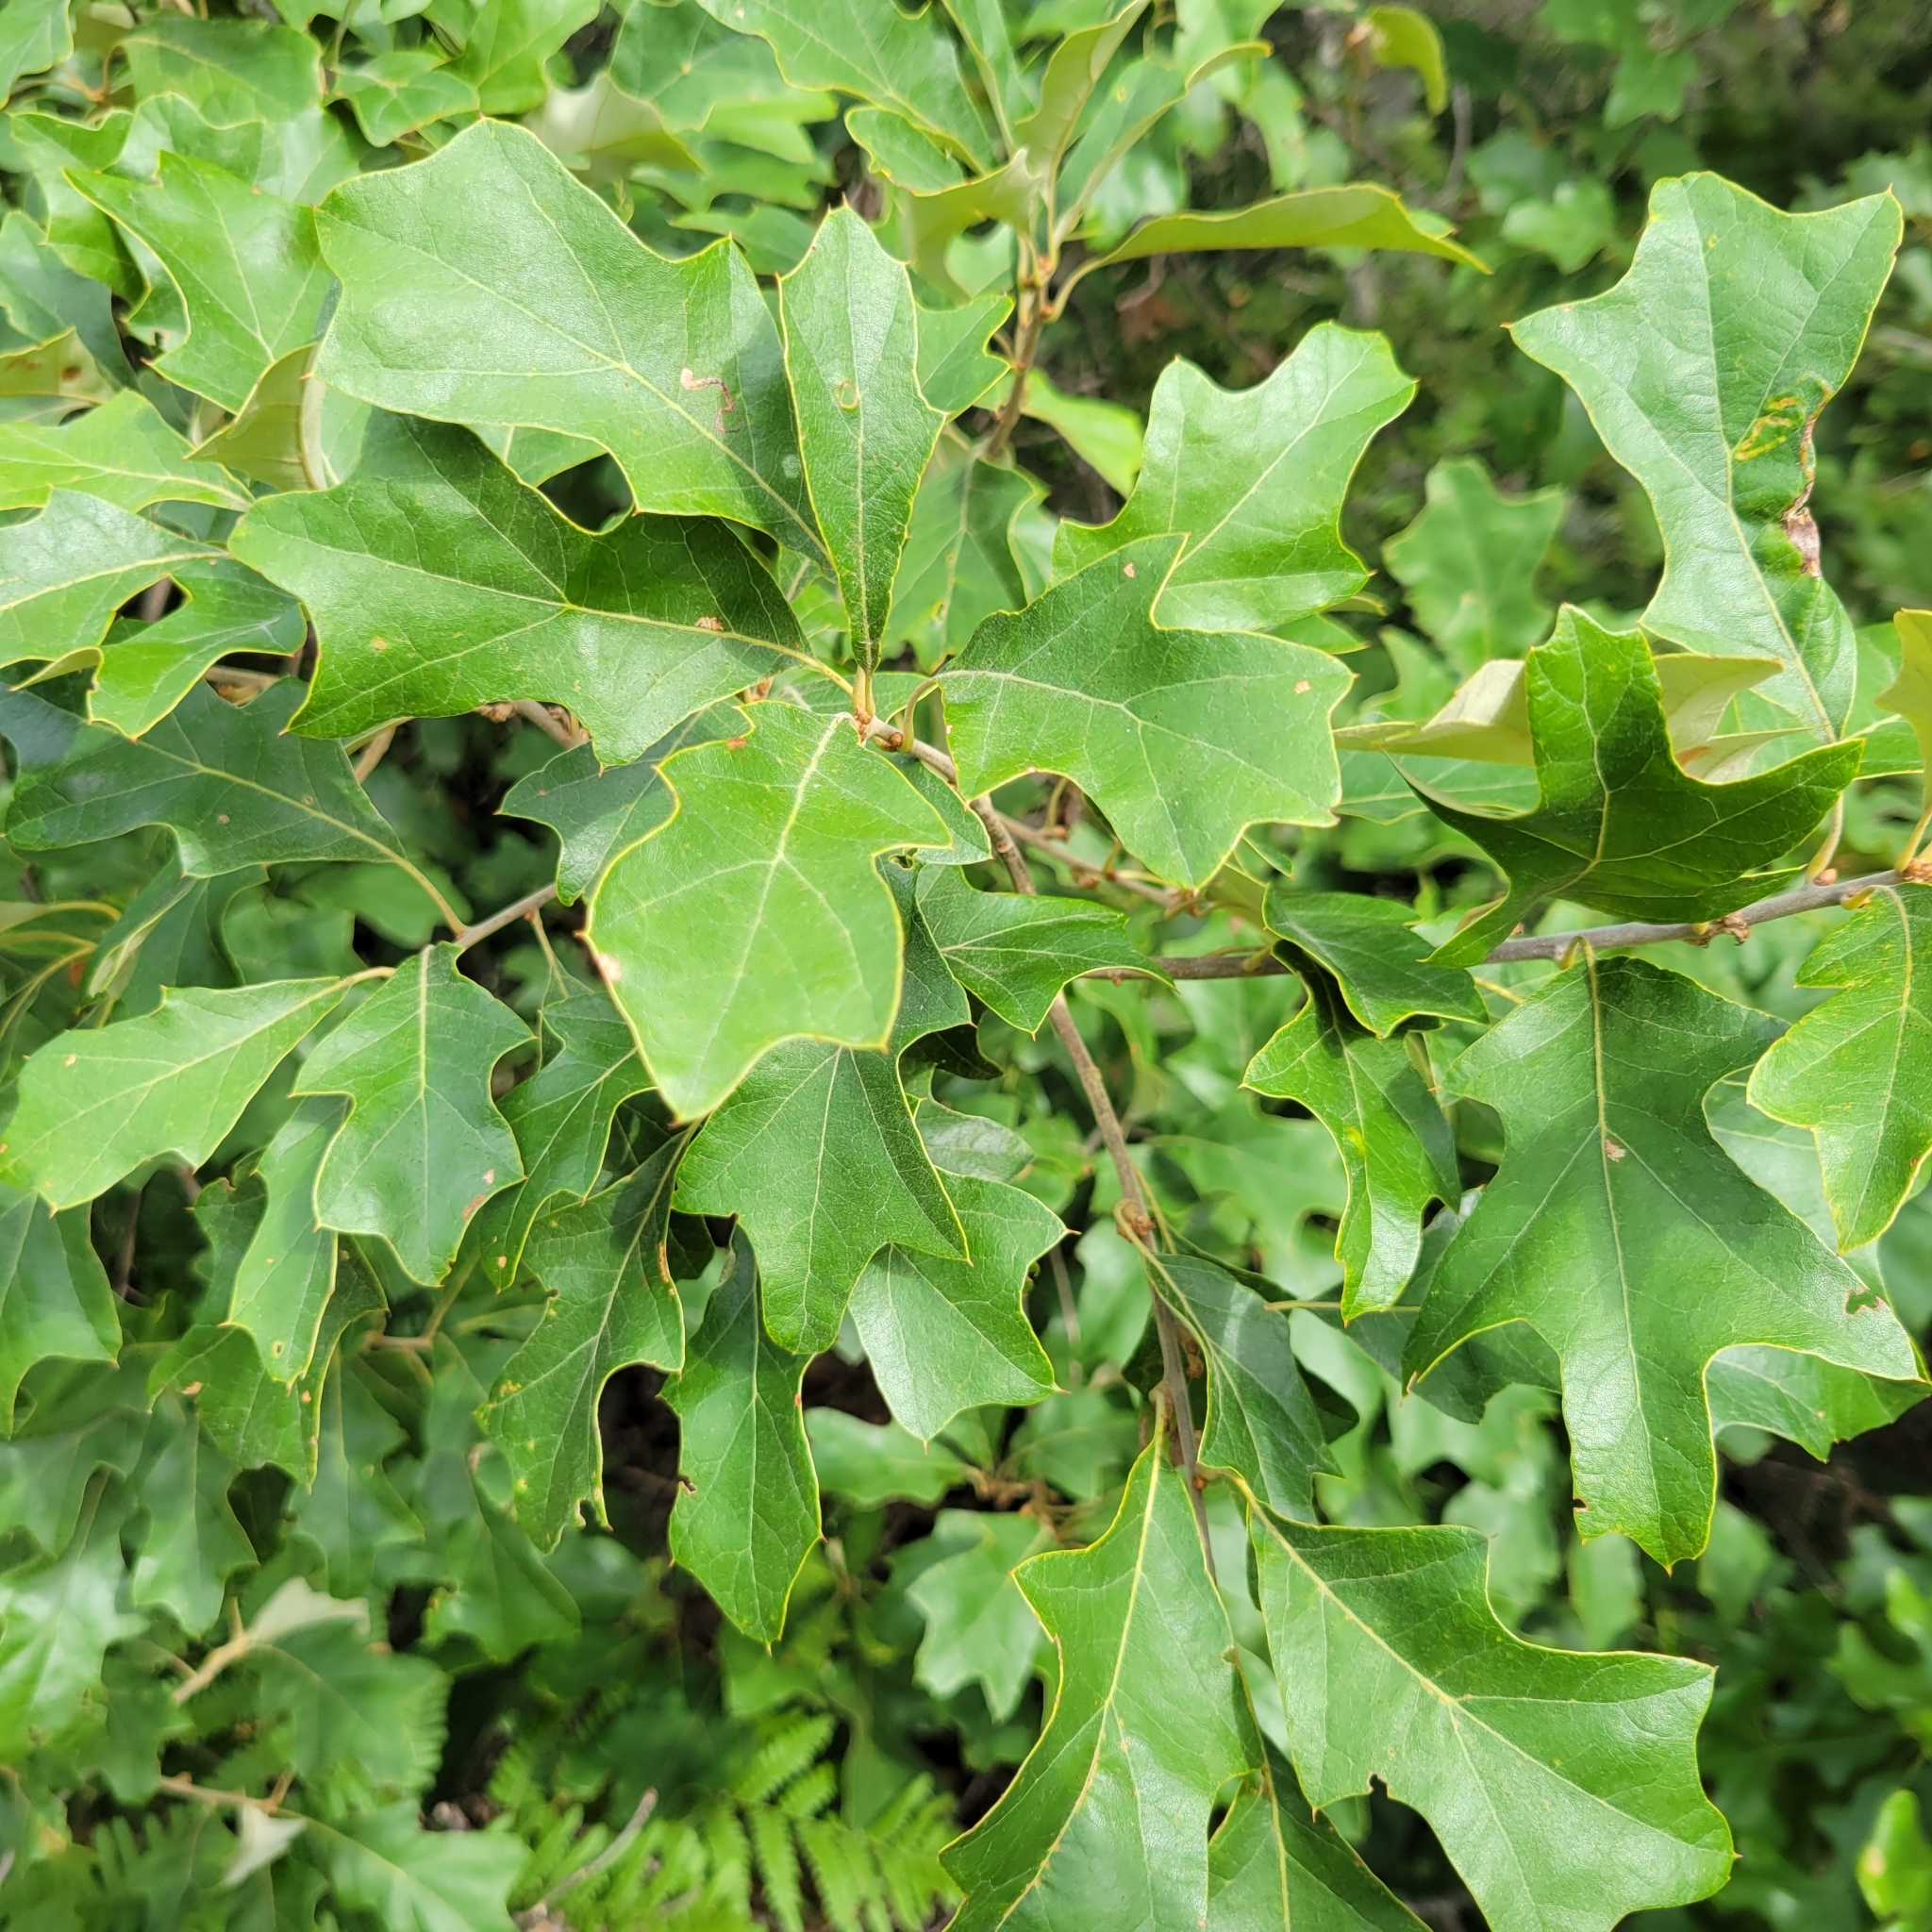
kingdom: Plantae
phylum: Tracheophyta
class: Magnoliopsida
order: Fagales
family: Fagaceae
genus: Quercus
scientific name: Quercus ilicifolia
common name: Bear oak
